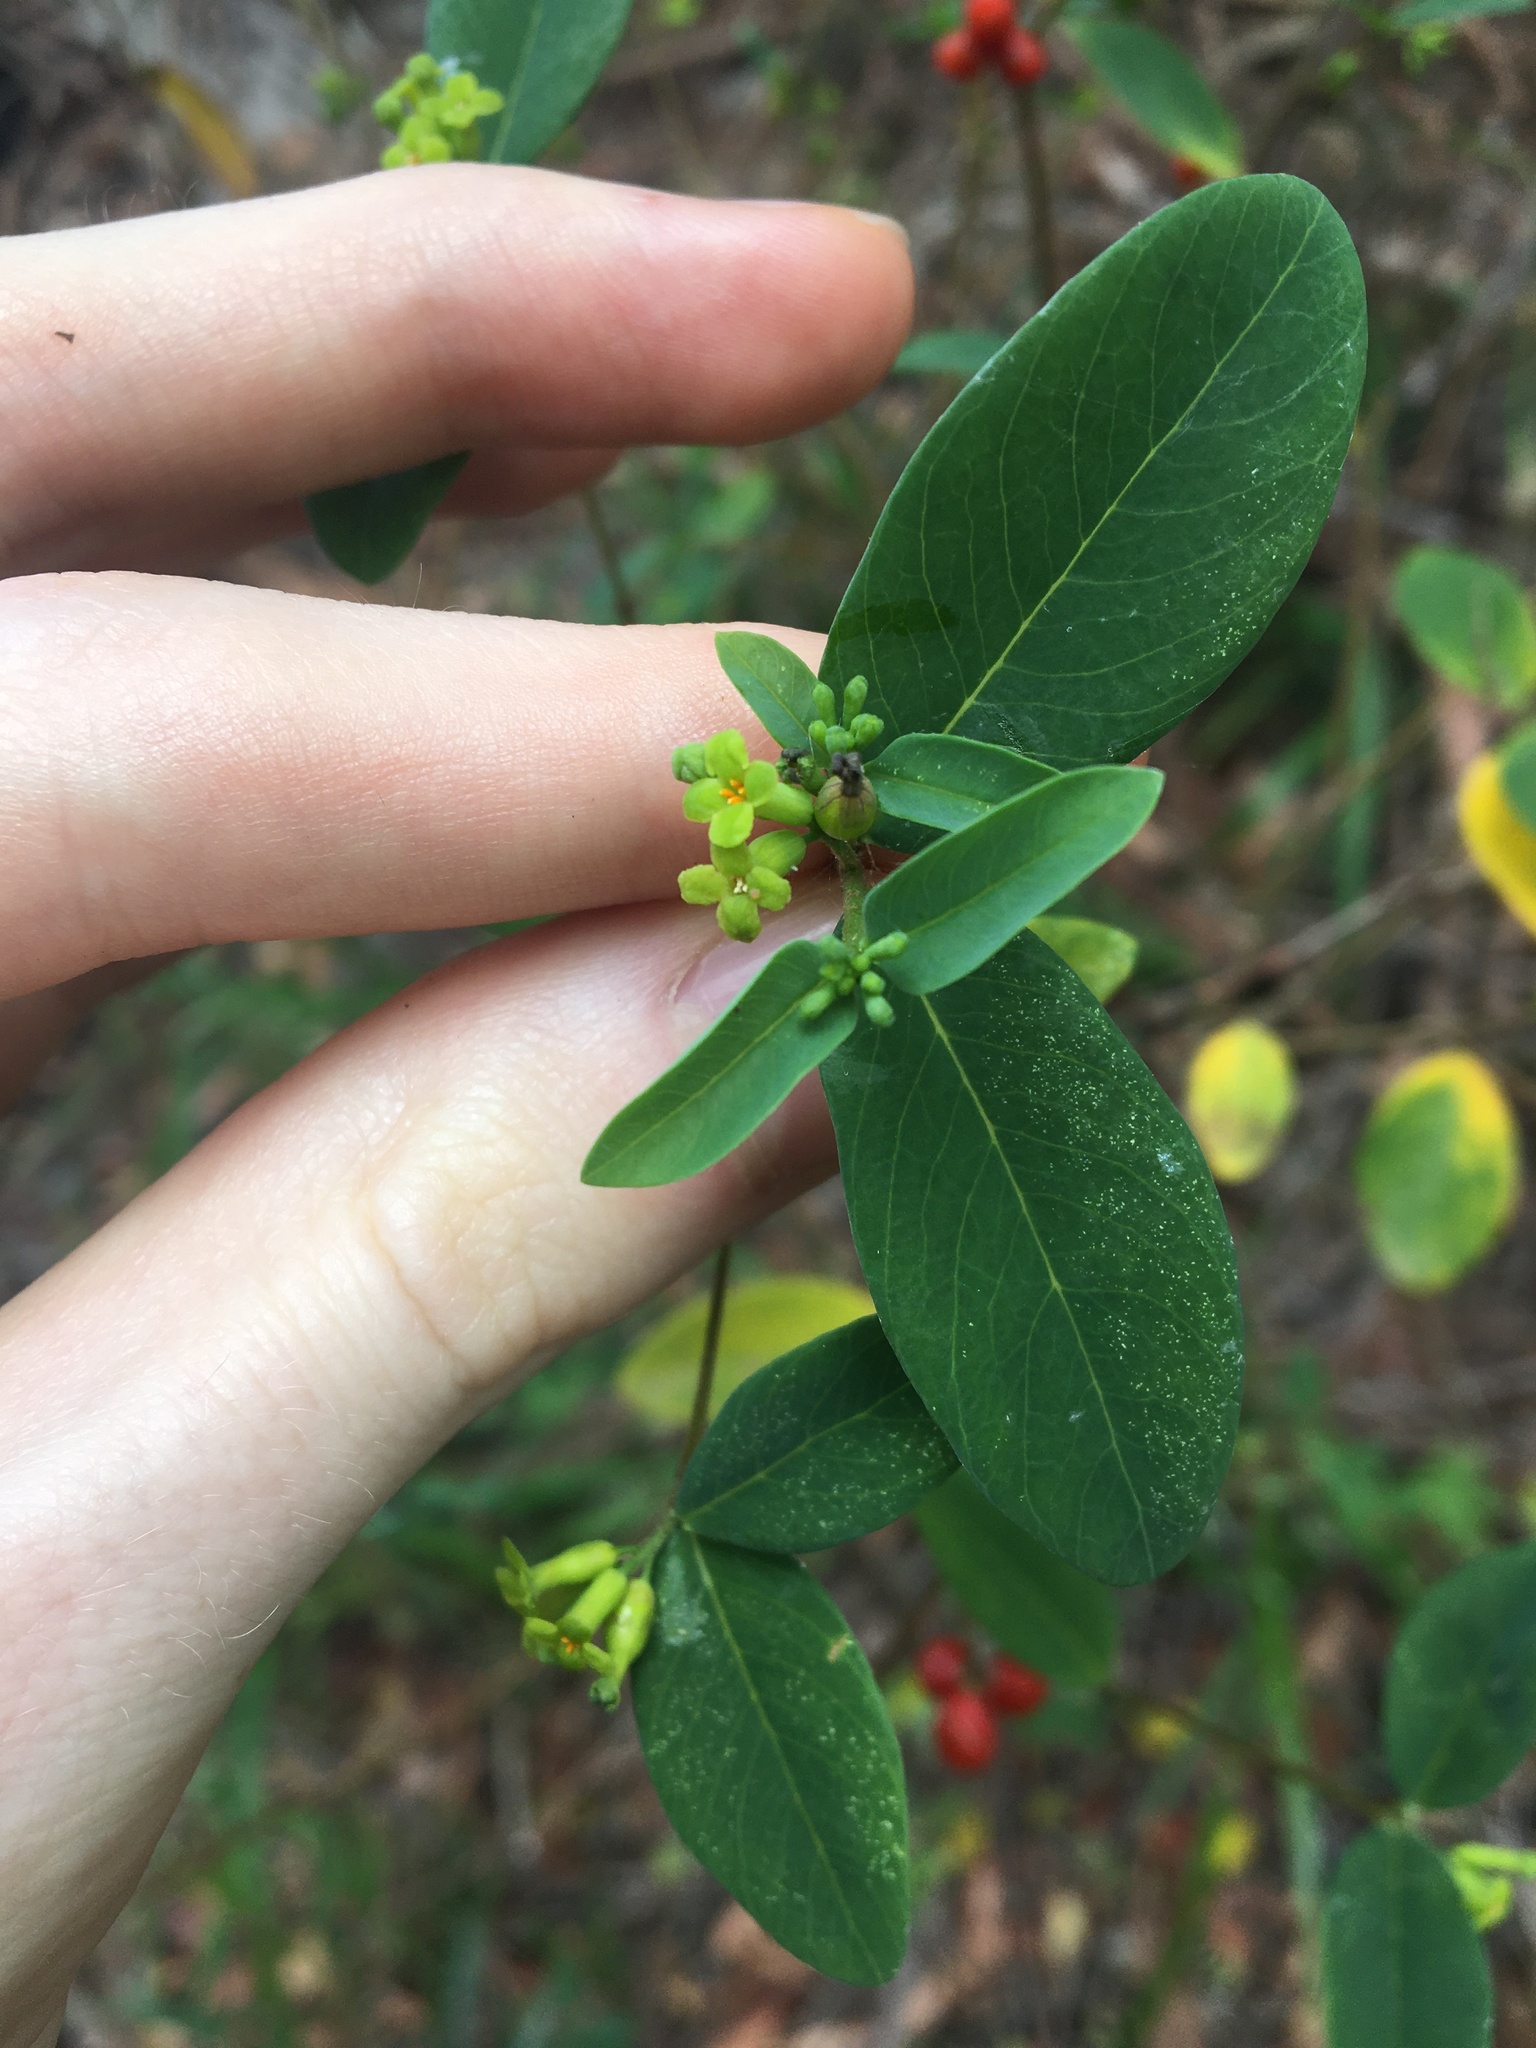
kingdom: Plantae
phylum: Tracheophyta
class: Magnoliopsida
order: Malvales
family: Thymelaeaceae
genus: Wikstroemia
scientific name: Wikstroemia indica
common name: Tiebush
